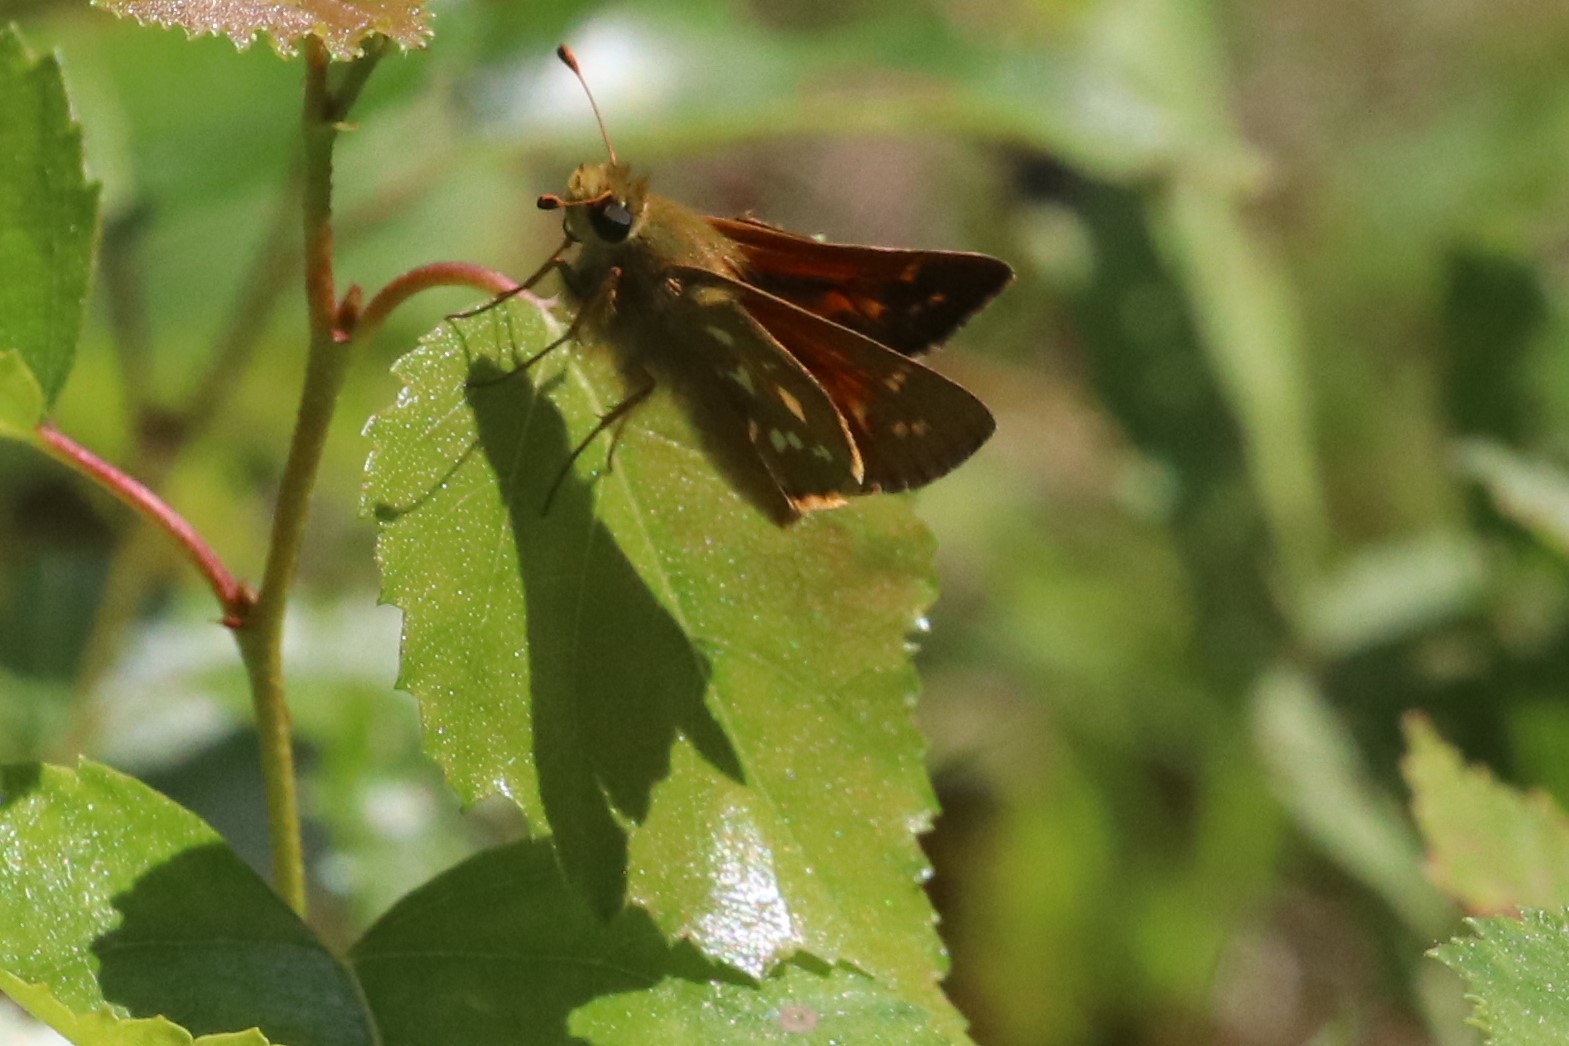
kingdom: Animalia
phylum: Arthropoda
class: Insecta
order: Lepidoptera
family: Hesperiidae
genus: Hesperia
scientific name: Hesperia comma
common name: Common branded skipper
